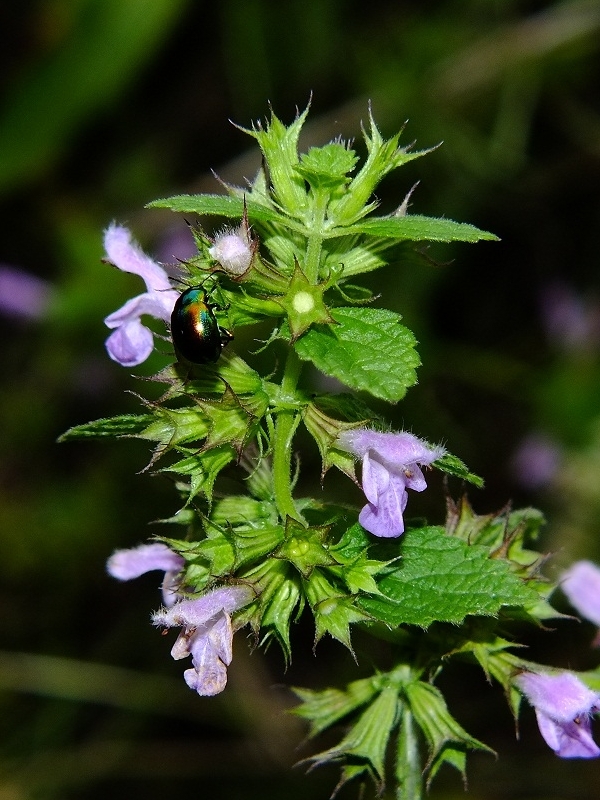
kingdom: Plantae
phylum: Tracheophyta
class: Magnoliopsida
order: Lamiales
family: Lamiaceae
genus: Ballota
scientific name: Ballota nigra
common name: Black horehound
